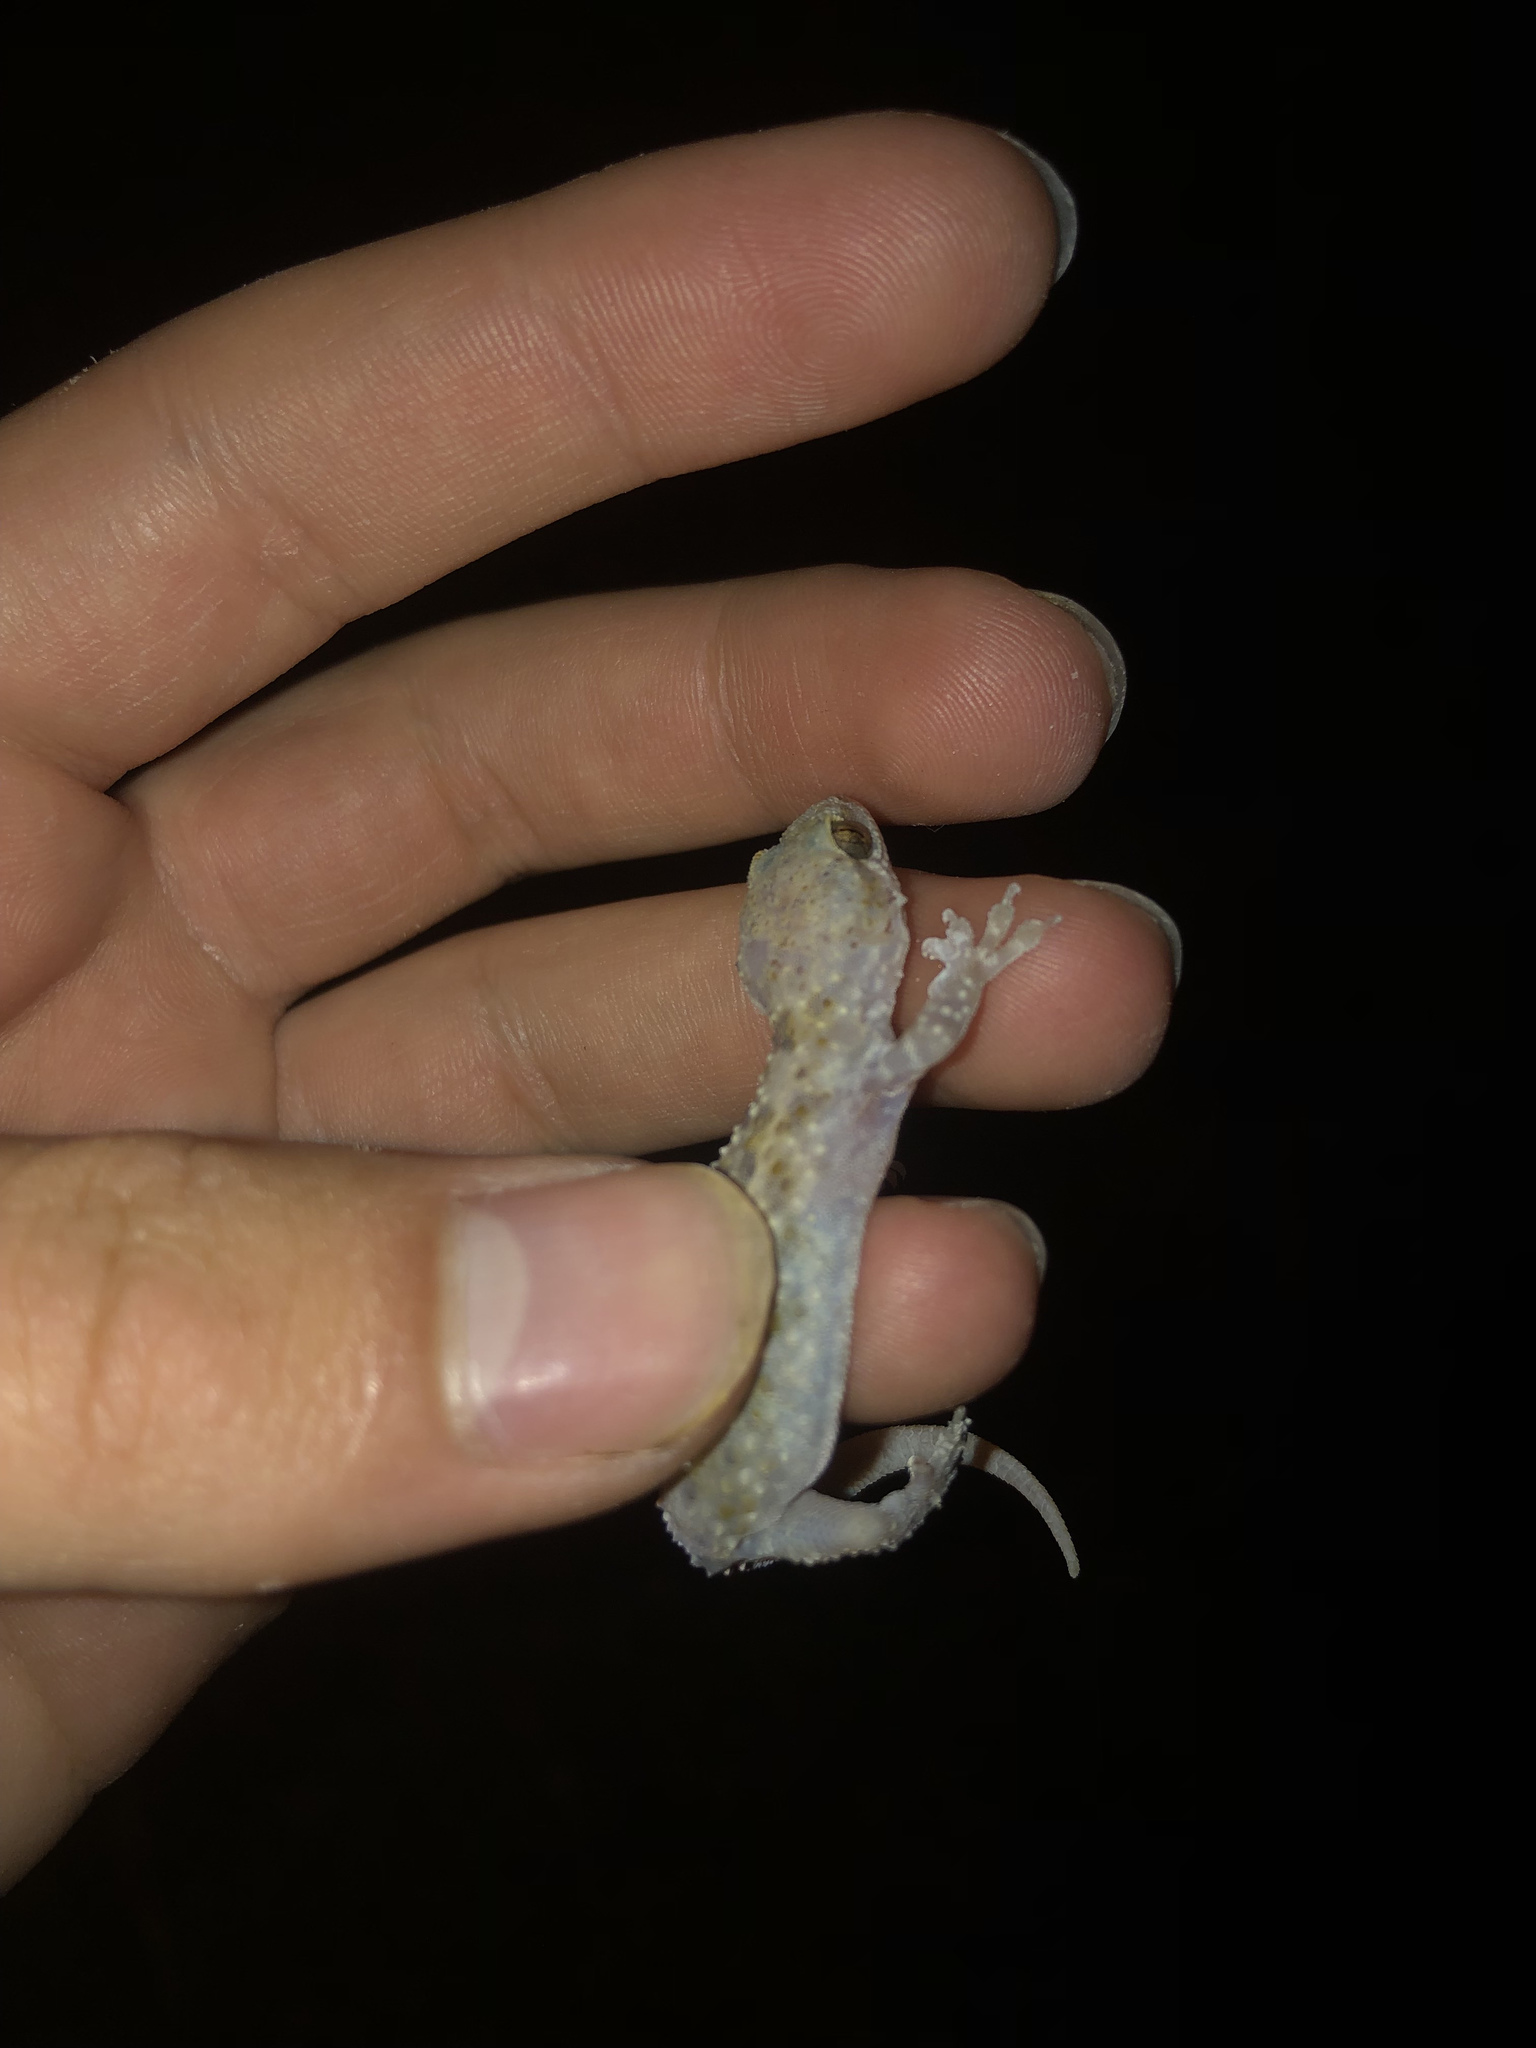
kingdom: Animalia
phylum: Chordata
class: Squamata
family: Gekkonidae
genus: Hemidactylus
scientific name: Hemidactylus turcicus
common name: Turkish gecko
